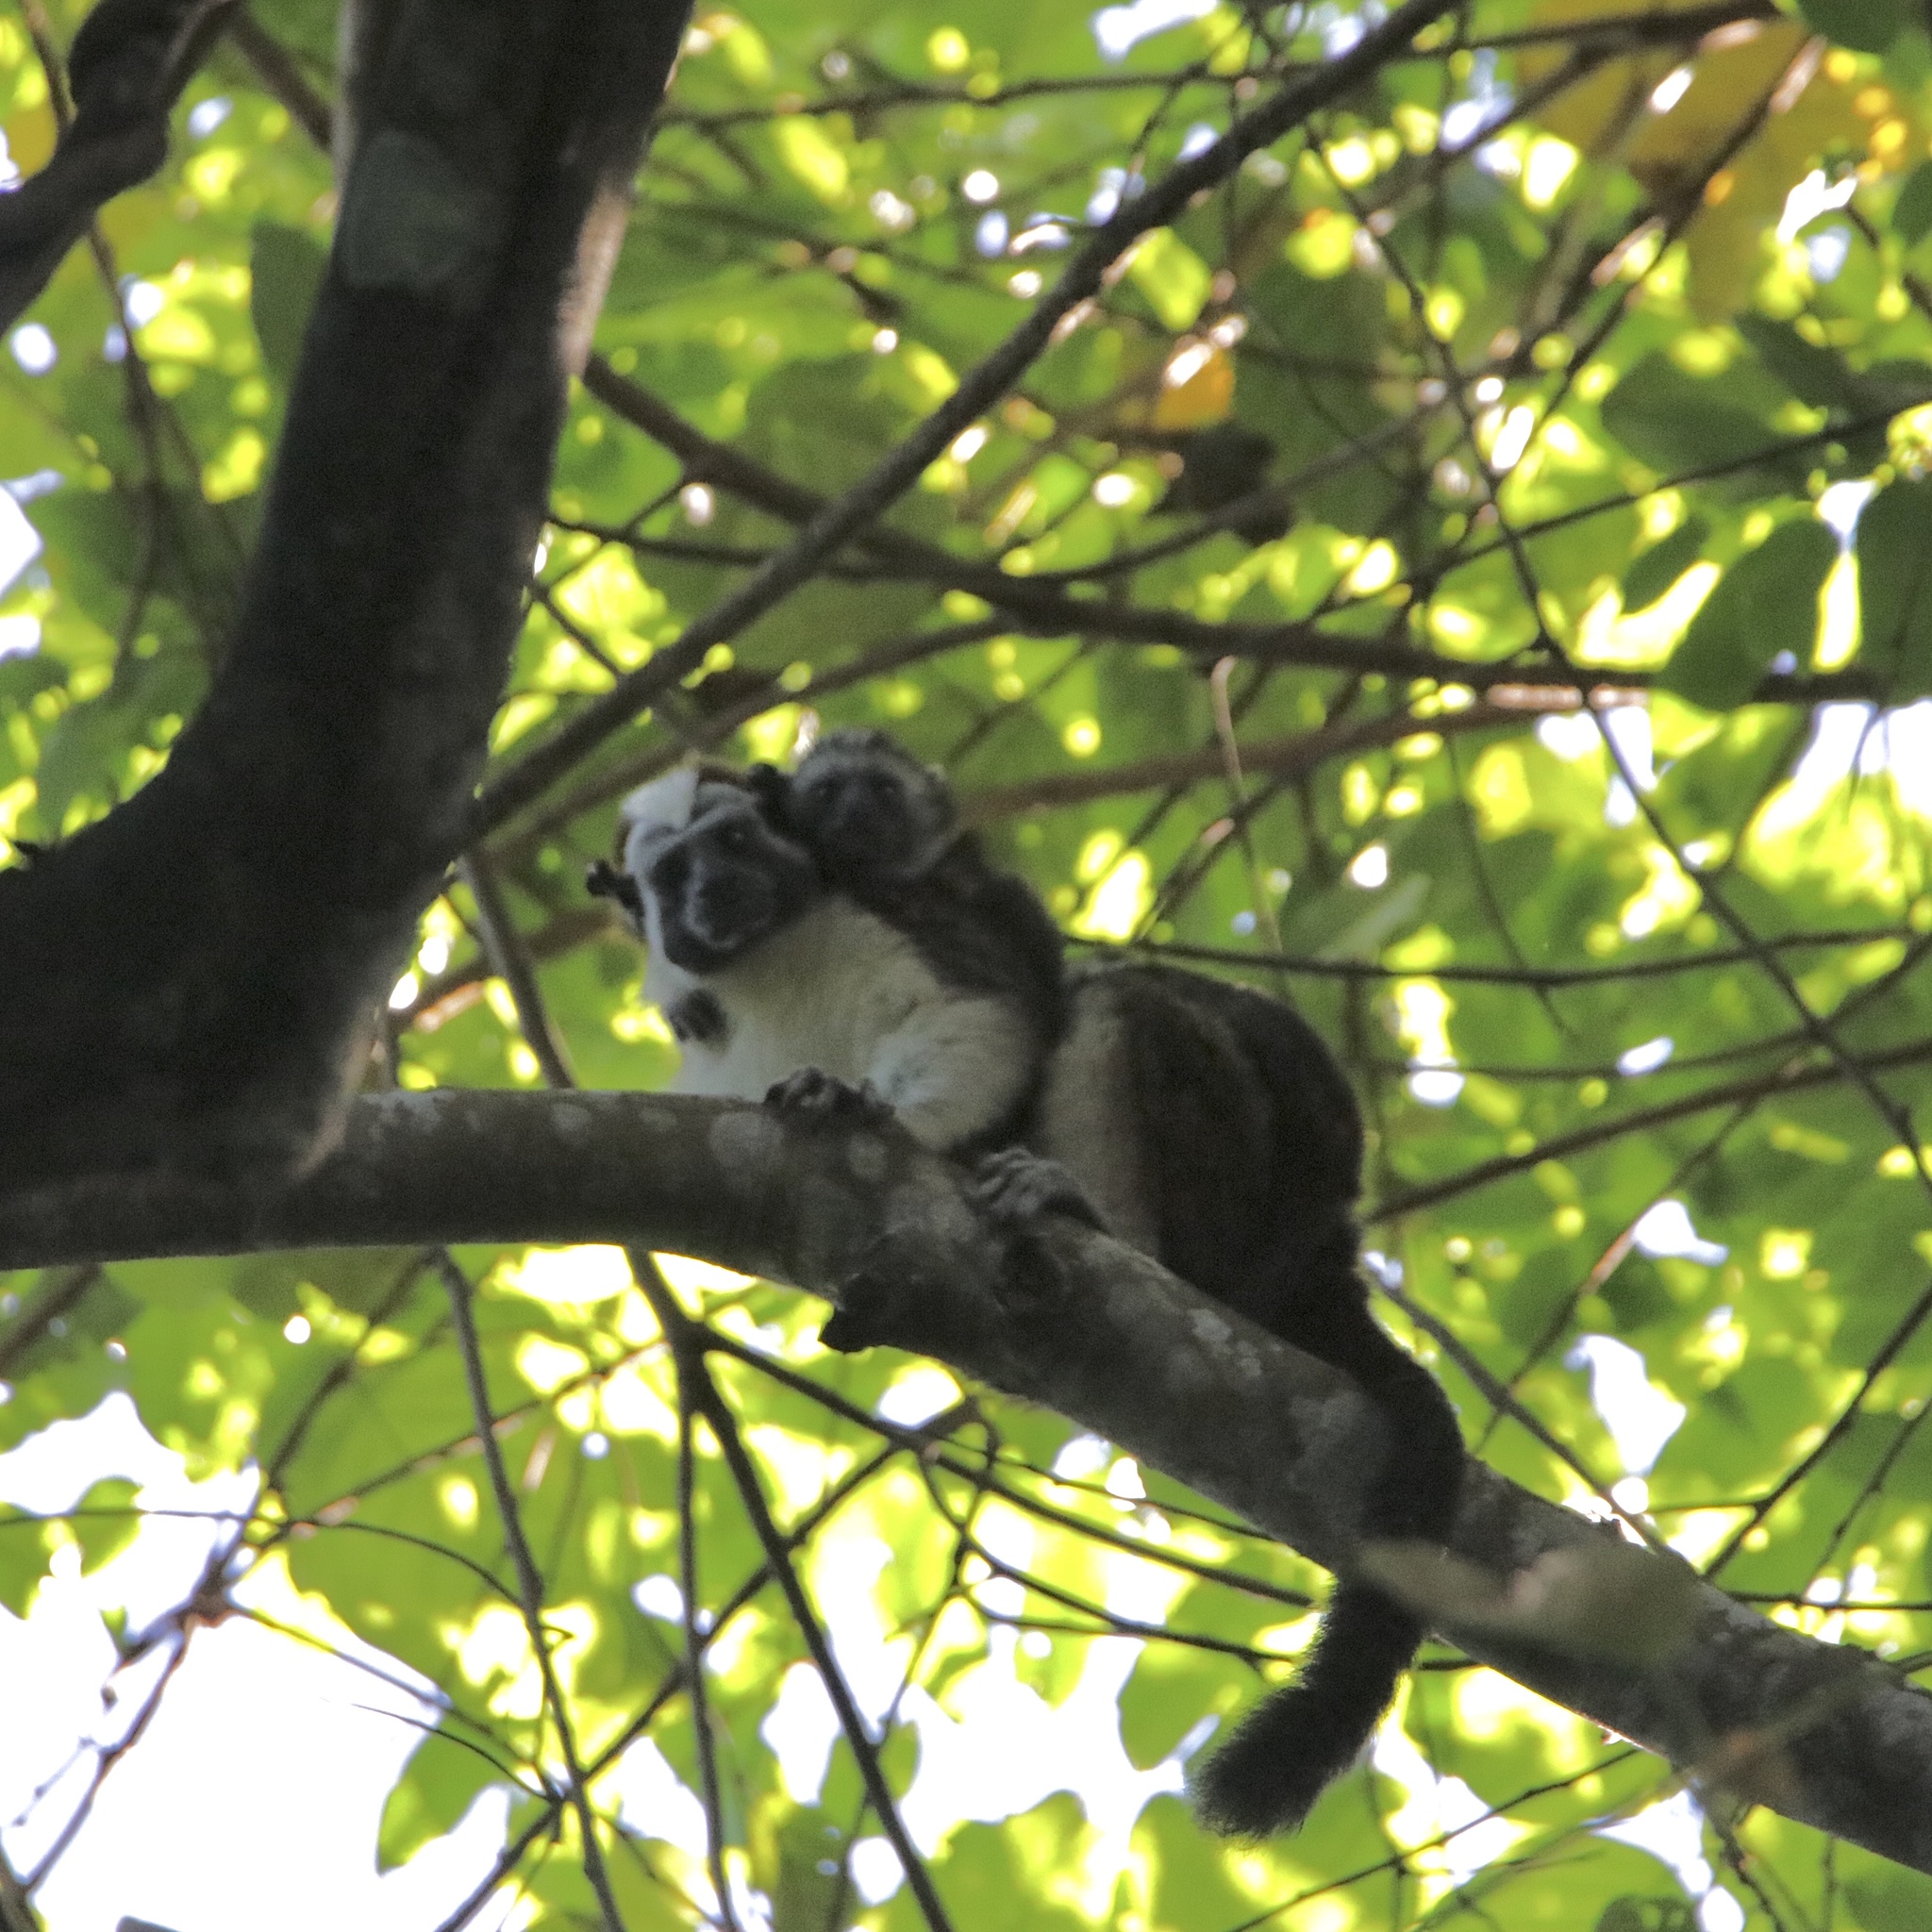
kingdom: Animalia
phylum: Chordata
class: Mammalia
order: Primates
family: Callitrichidae
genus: Saguinus
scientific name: Saguinus geoffroyi
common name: Geoffroy s tamarin
